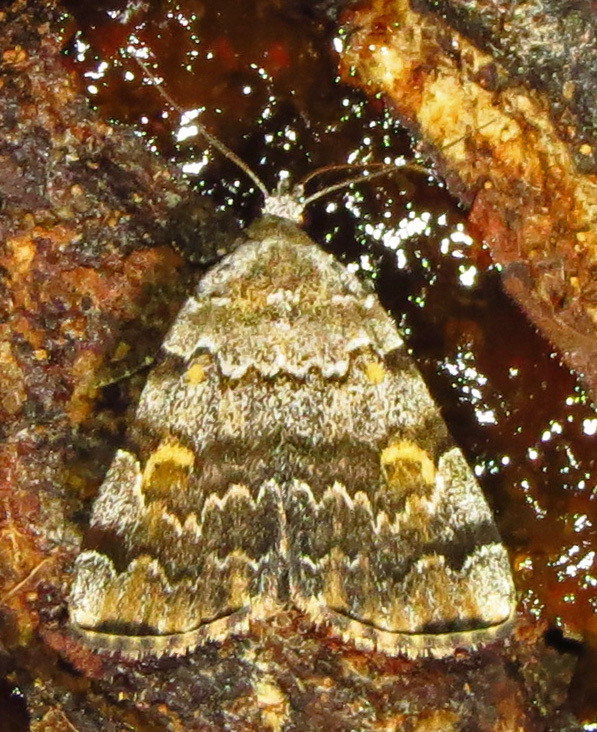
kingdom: Animalia
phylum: Arthropoda
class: Insecta
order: Lepidoptera
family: Erebidae
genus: Idia
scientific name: Idia americalis
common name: American idia moth
